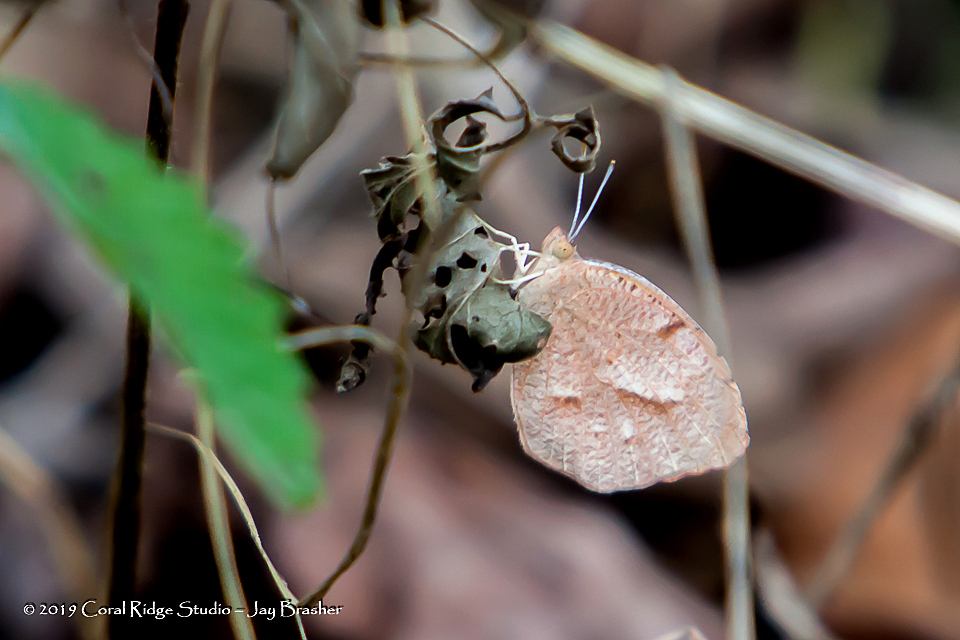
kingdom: Animalia
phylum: Arthropoda
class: Insecta
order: Lepidoptera
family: Pieridae
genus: Abaeis
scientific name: Abaeis nicippe
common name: Sleepy orange
